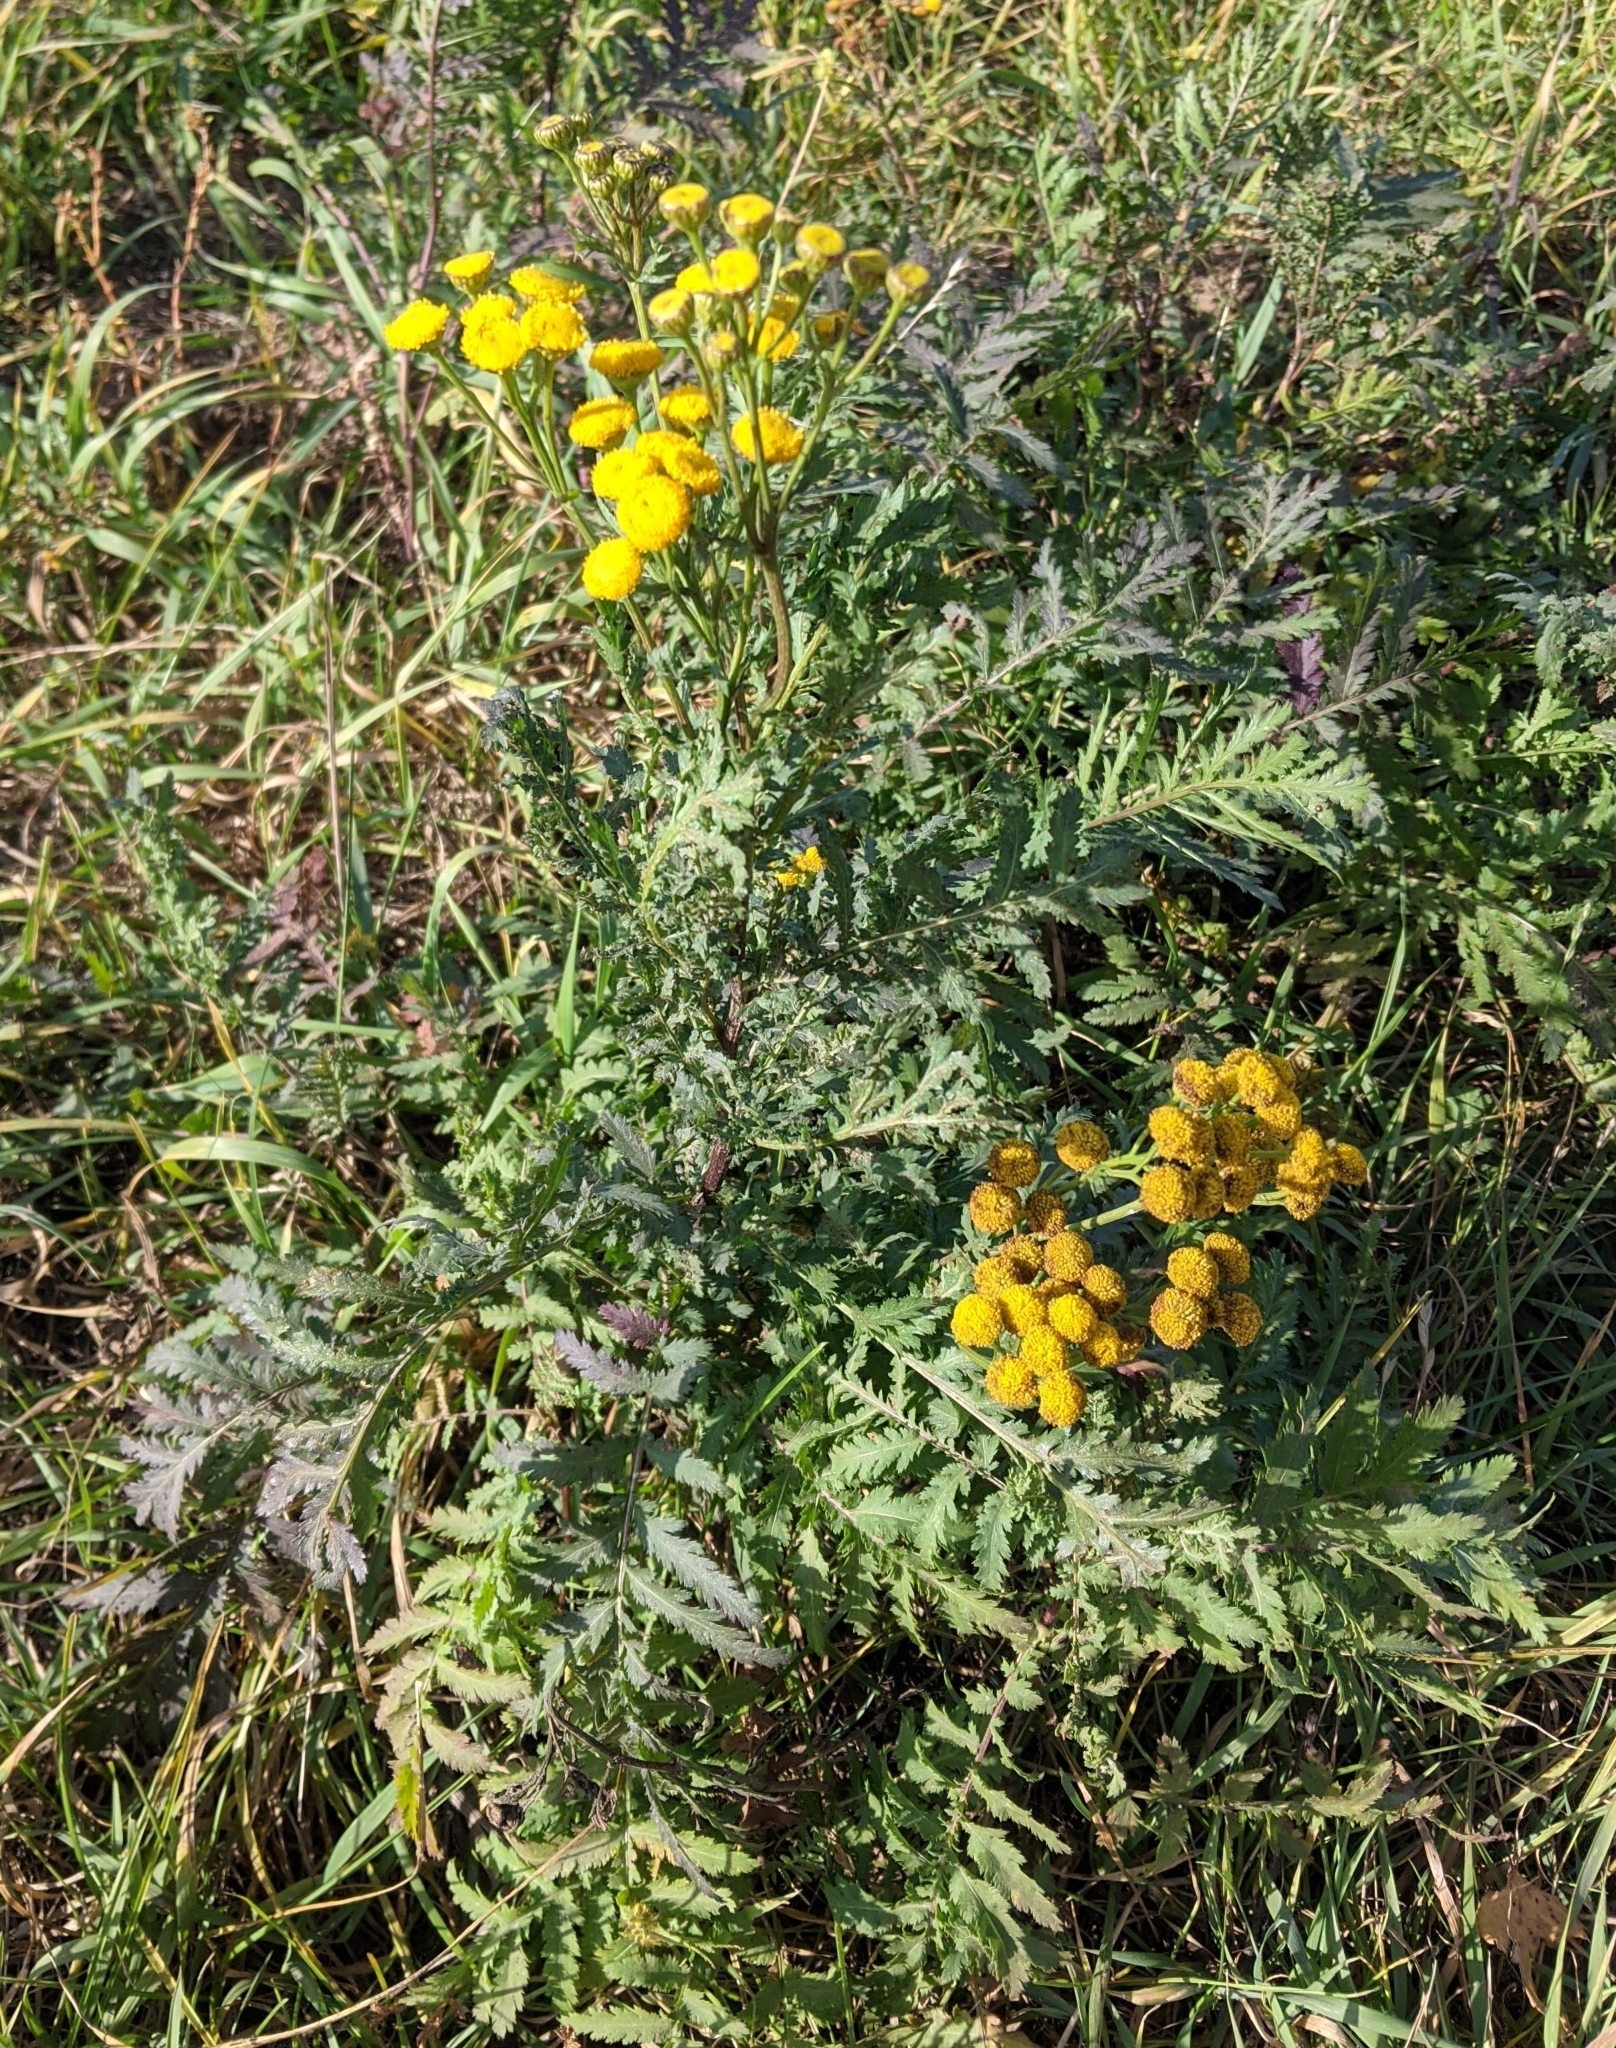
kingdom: Plantae
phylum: Tracheophyta
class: Magnoliopsida
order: Asterales
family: Asteraceae
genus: Tanacetum
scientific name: Tanacetum vulgare
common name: Common tansy
